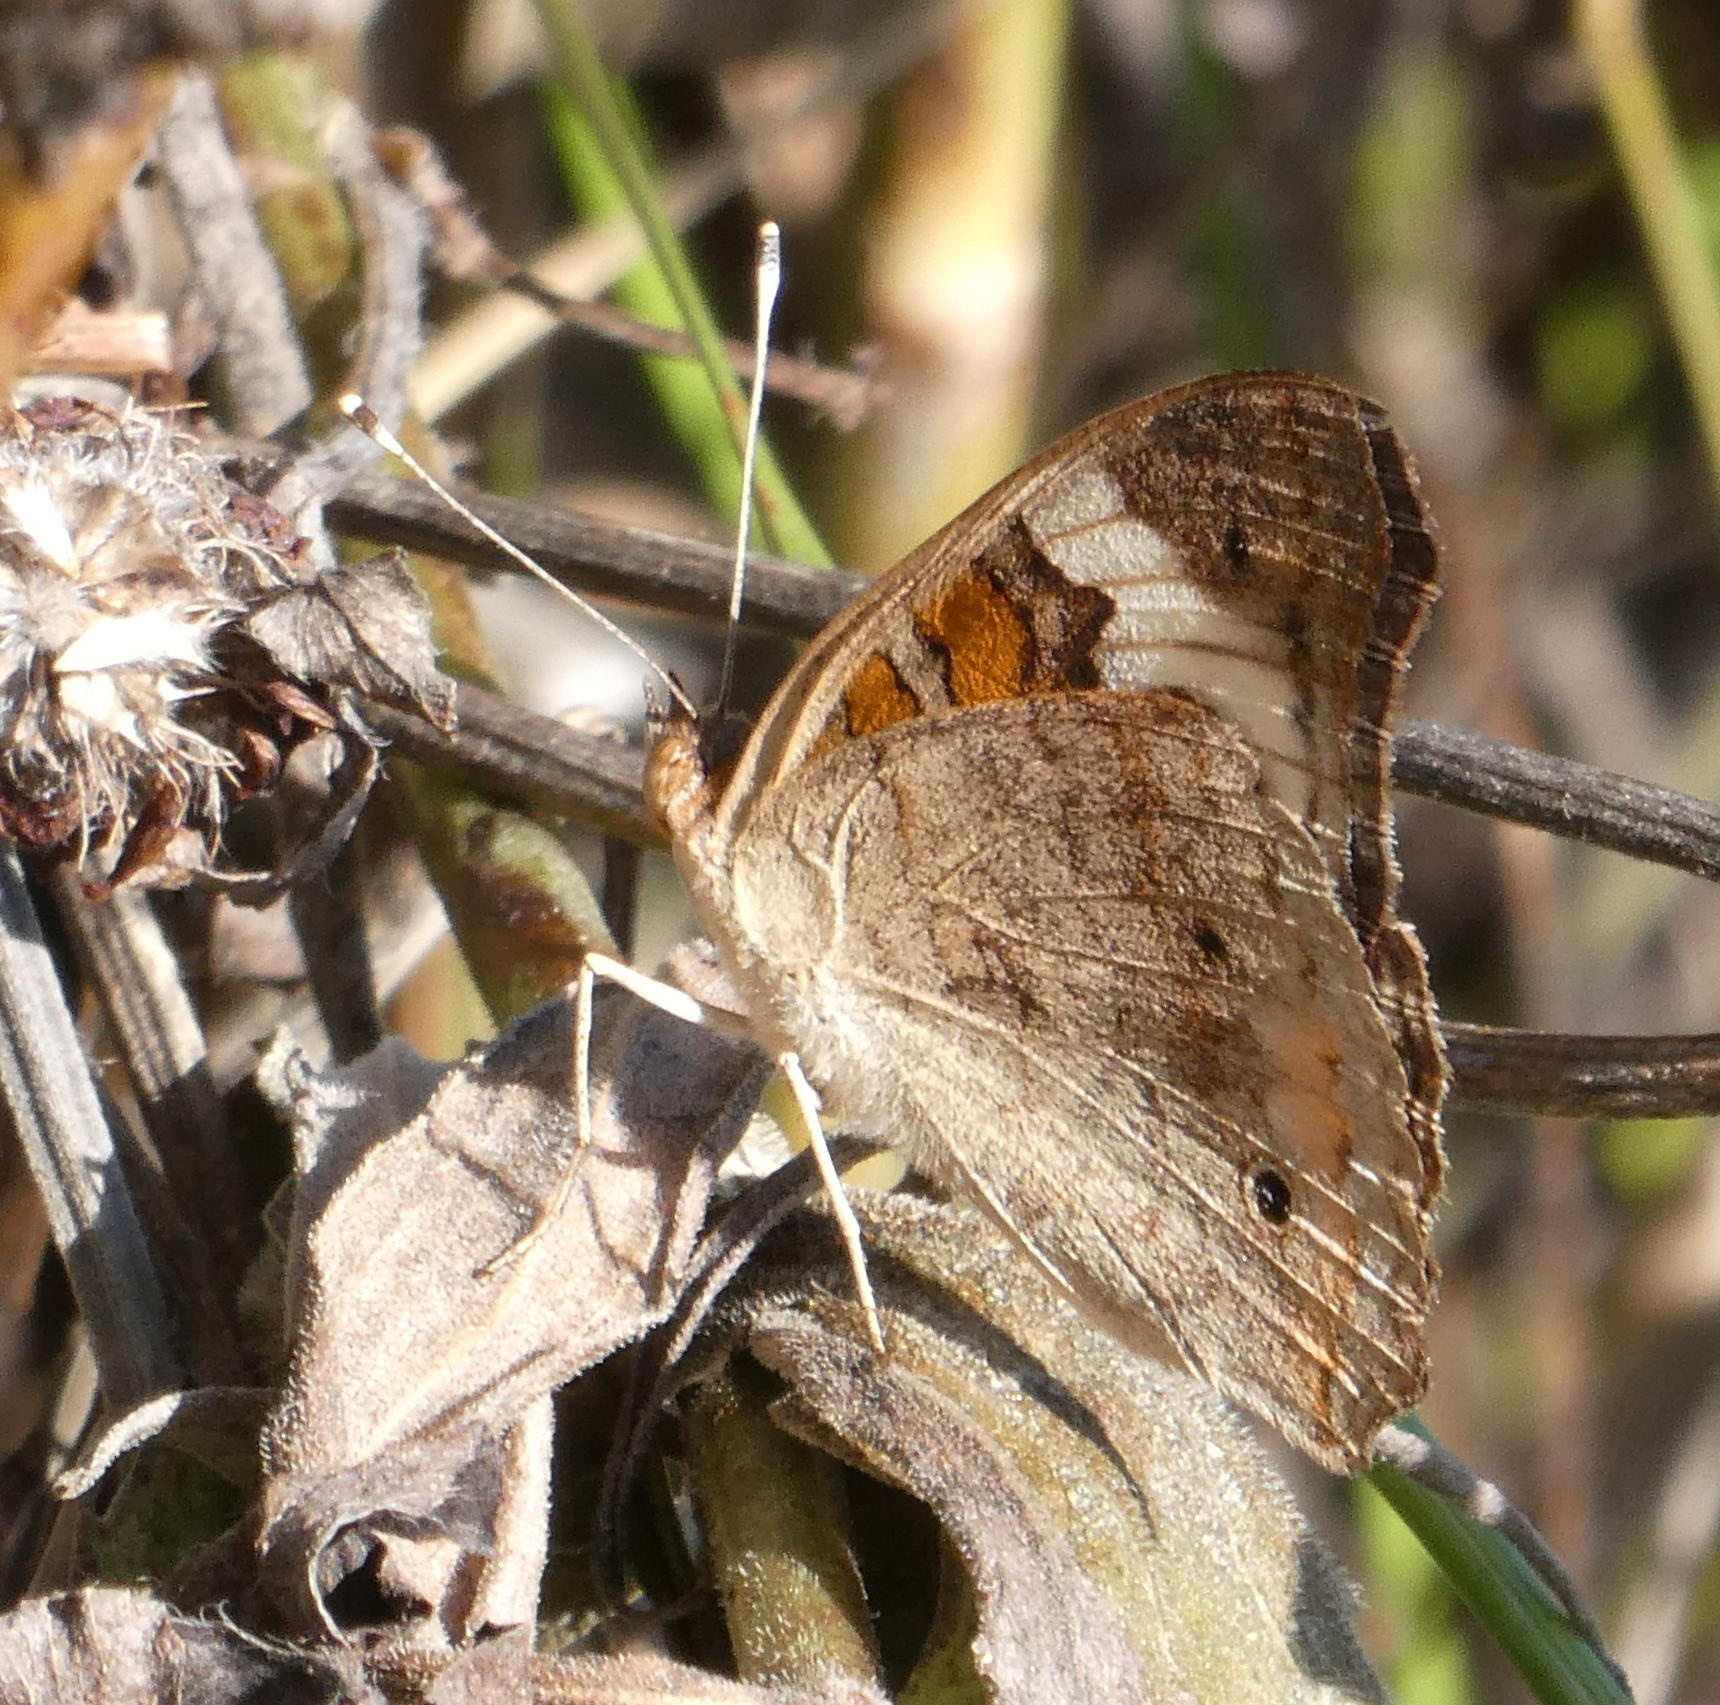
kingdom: Animalia
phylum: Arthropoda
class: Insecta
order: Lepidoptera
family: Nymphalidae
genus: Junonia
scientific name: Junonia coenia
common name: Common buckeye
